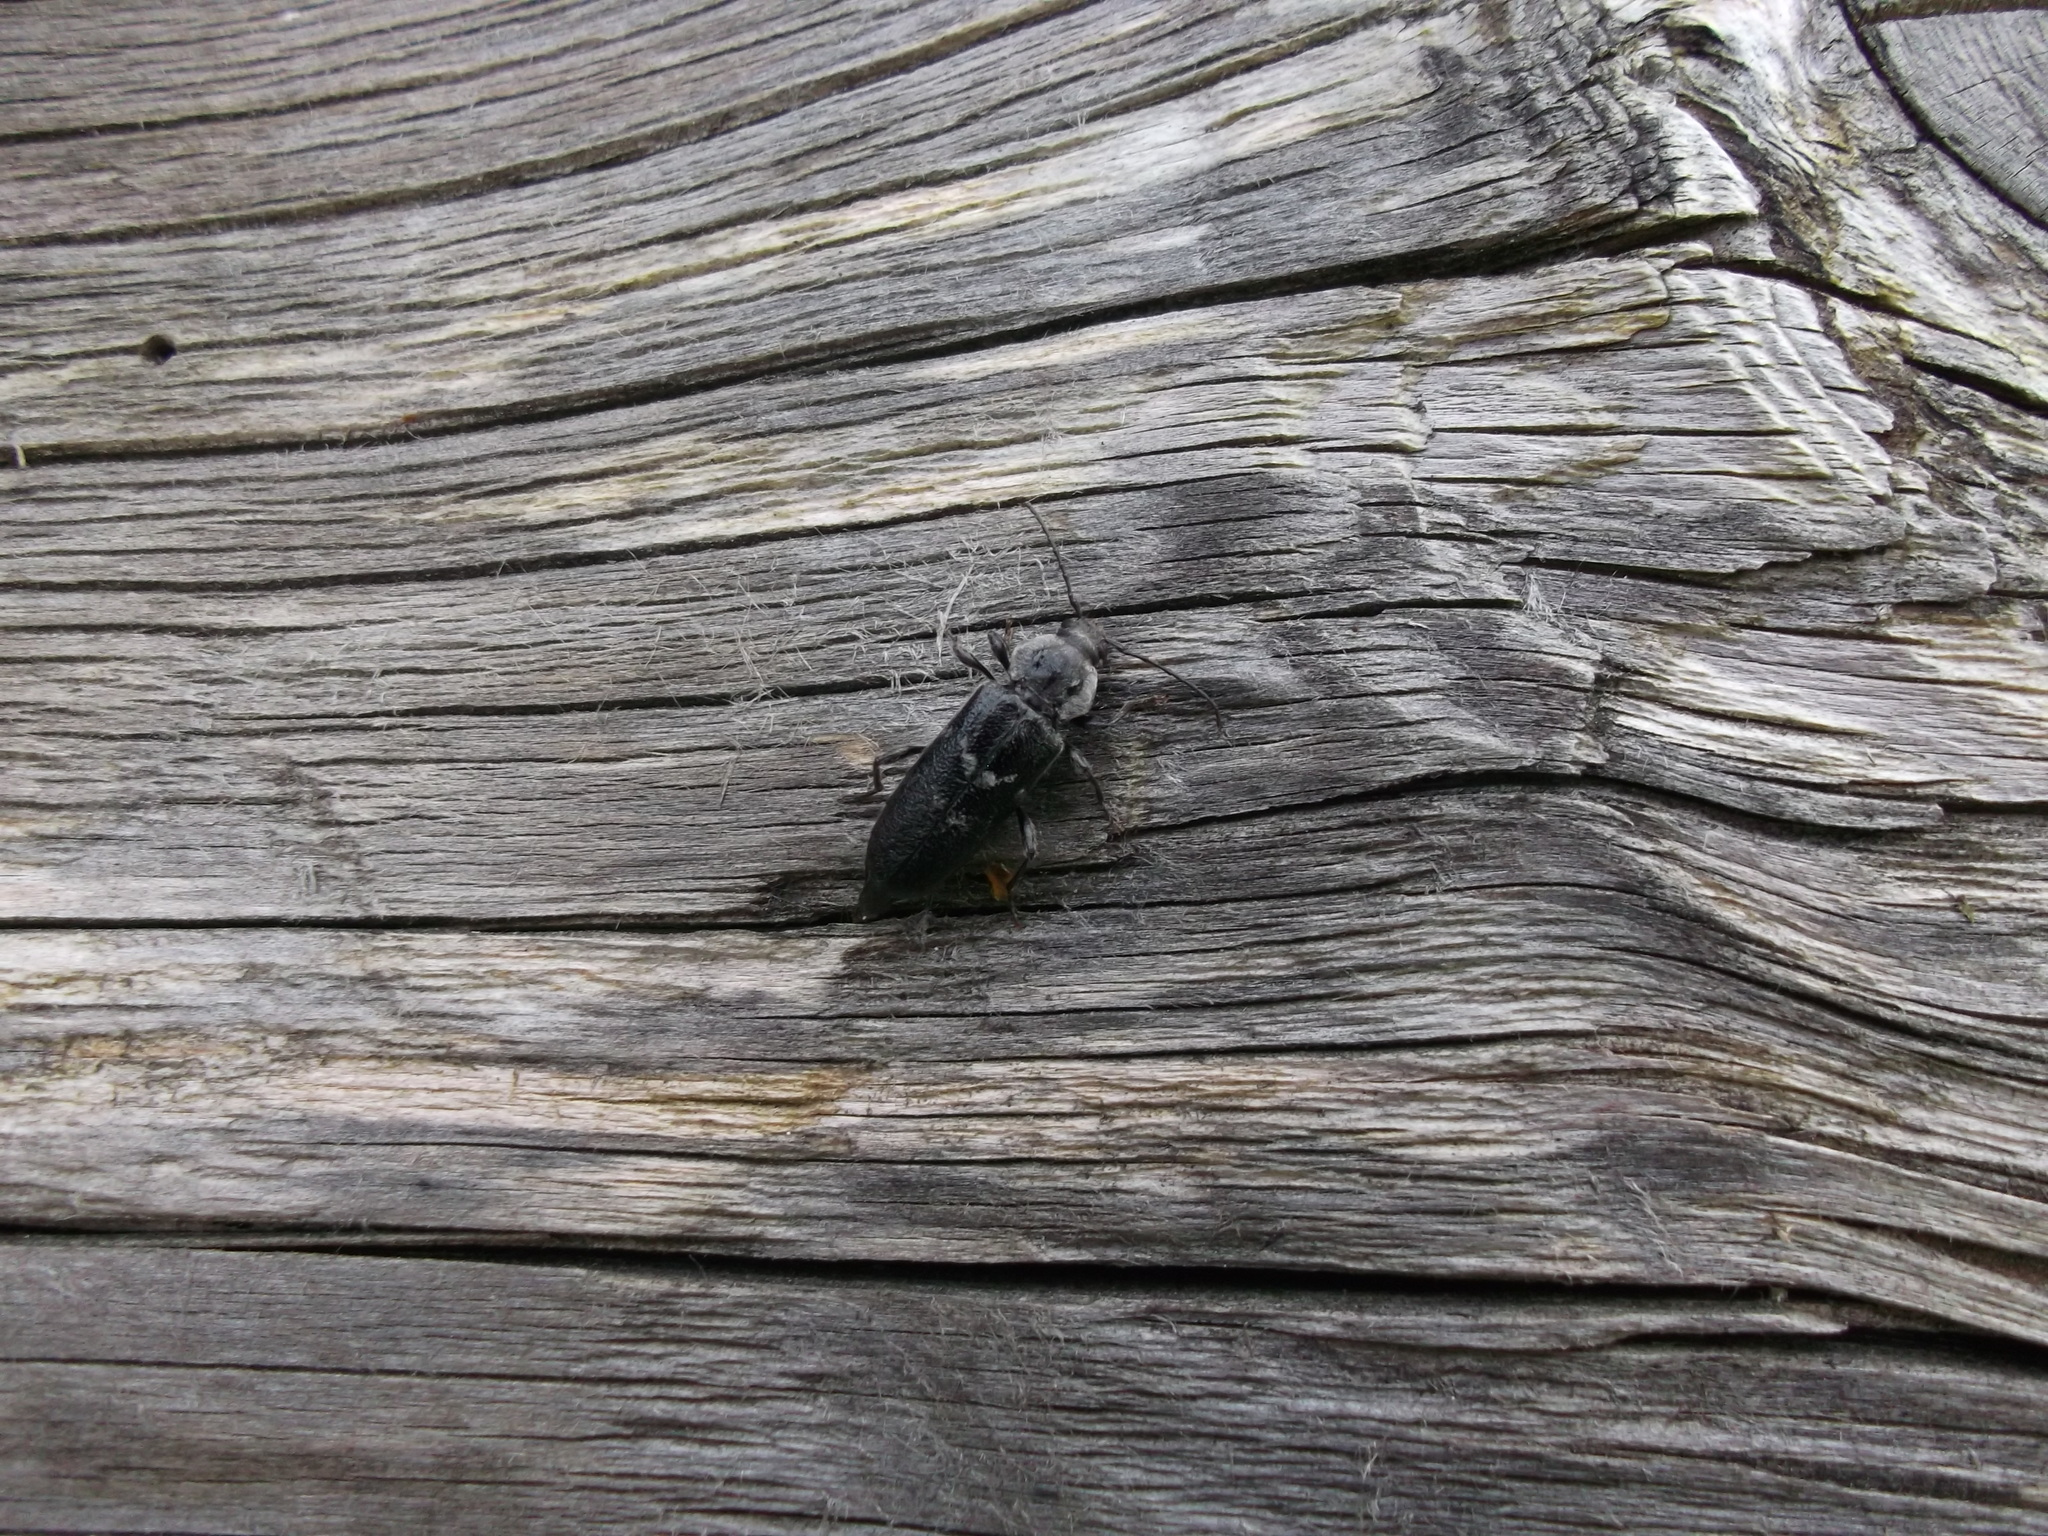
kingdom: Animalia
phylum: Arthropoda
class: Insecta
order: Coleoptera
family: Cerambycidae
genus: Hylotrupes
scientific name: Hylotrupes bajulus
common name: Old house borer
